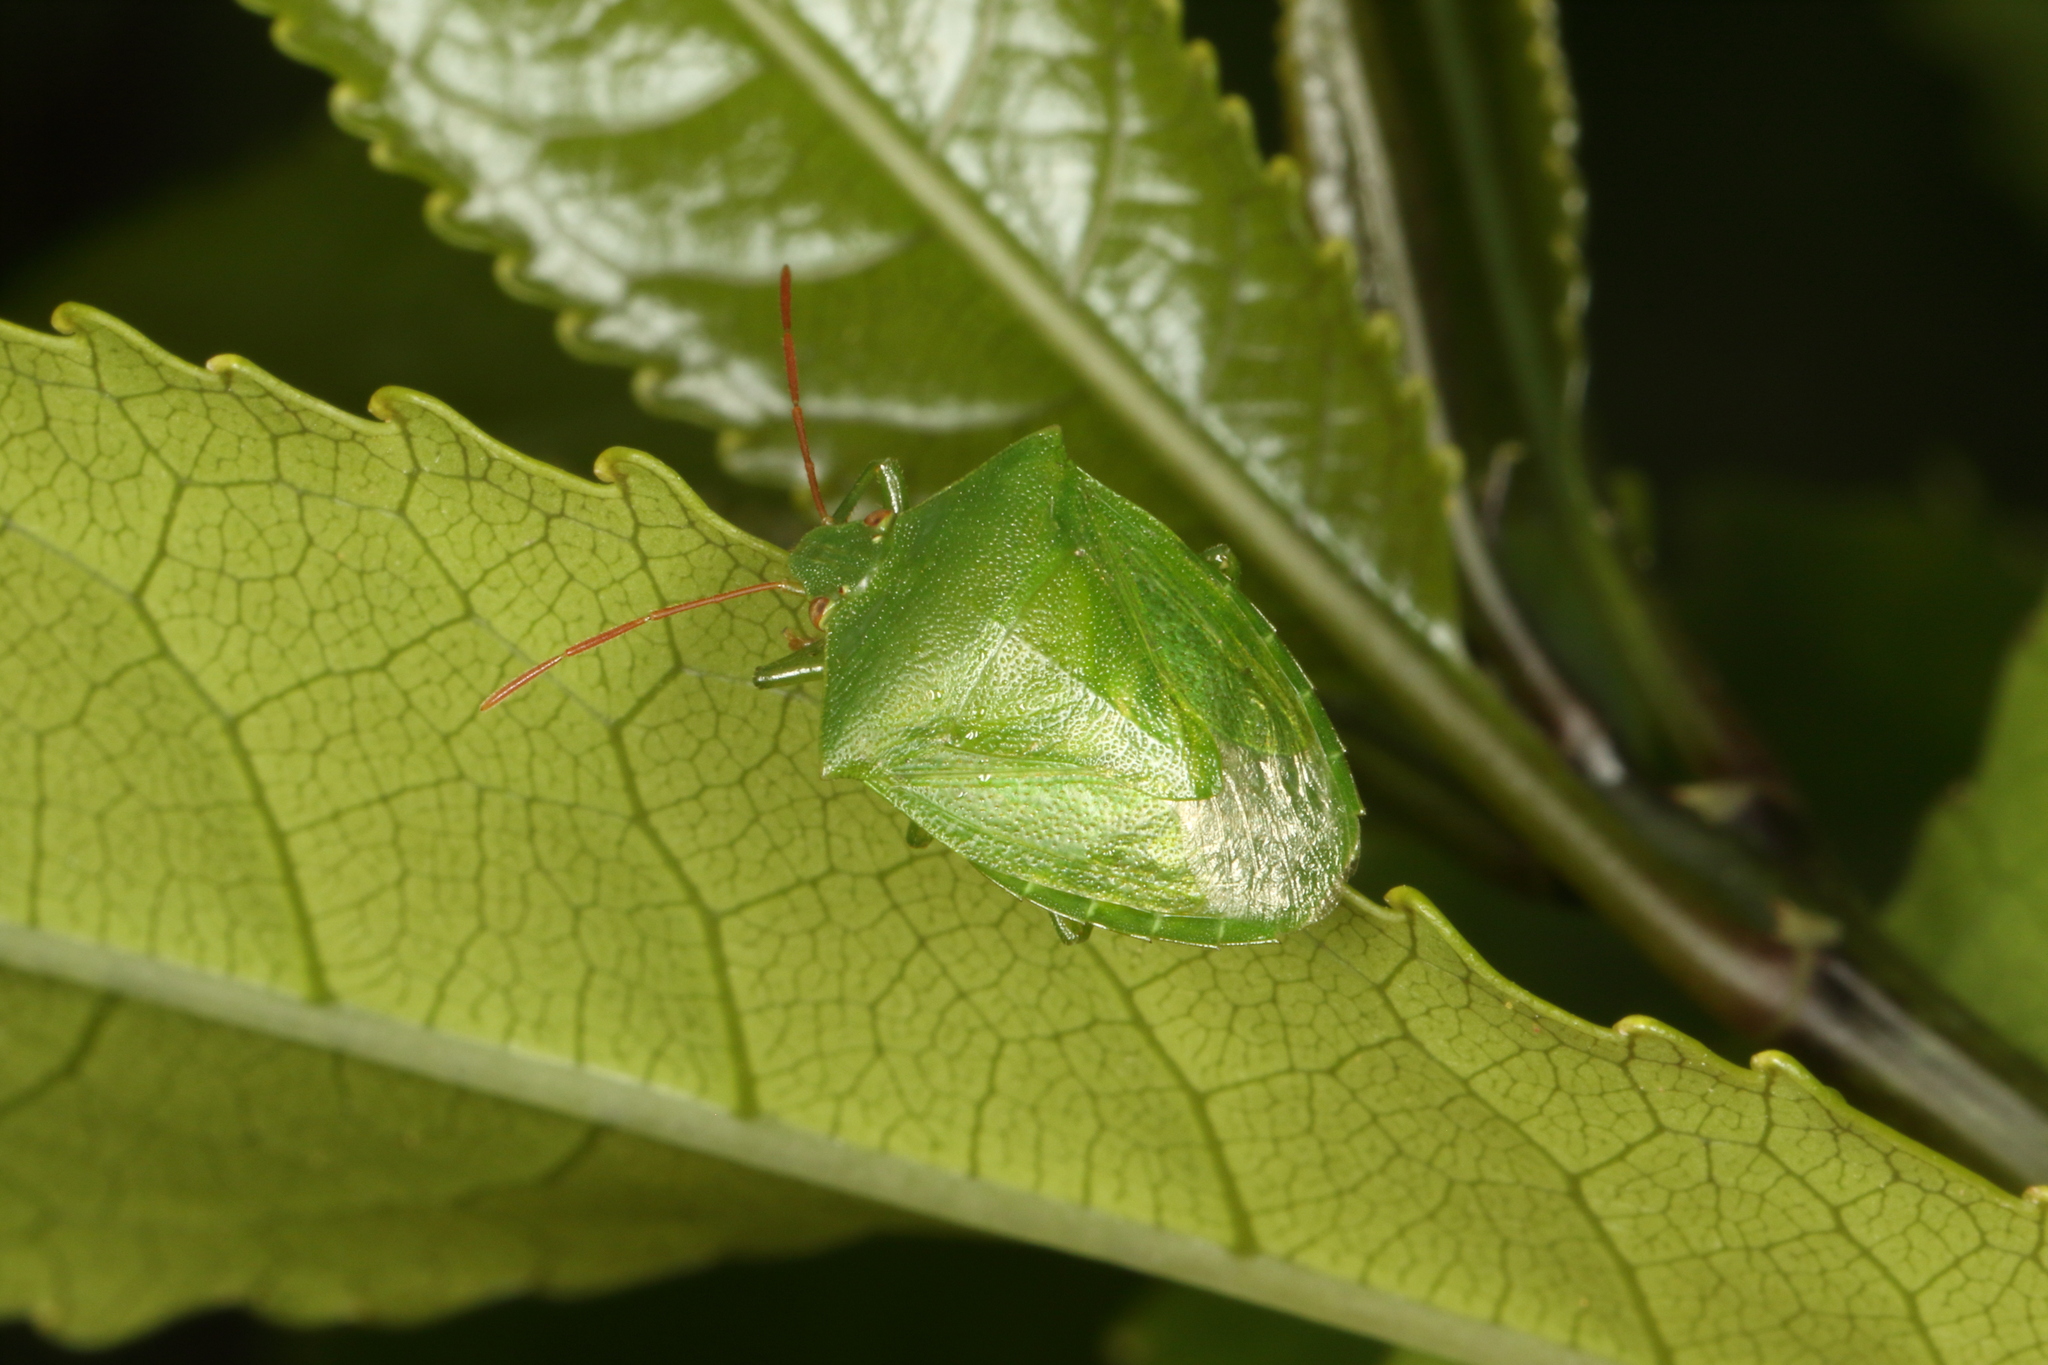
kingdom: Animalia
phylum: Arthropoda
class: Insecta
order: Hemiptera
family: Pentatomidae
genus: Cuspicona
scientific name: Cuspicona simplex
